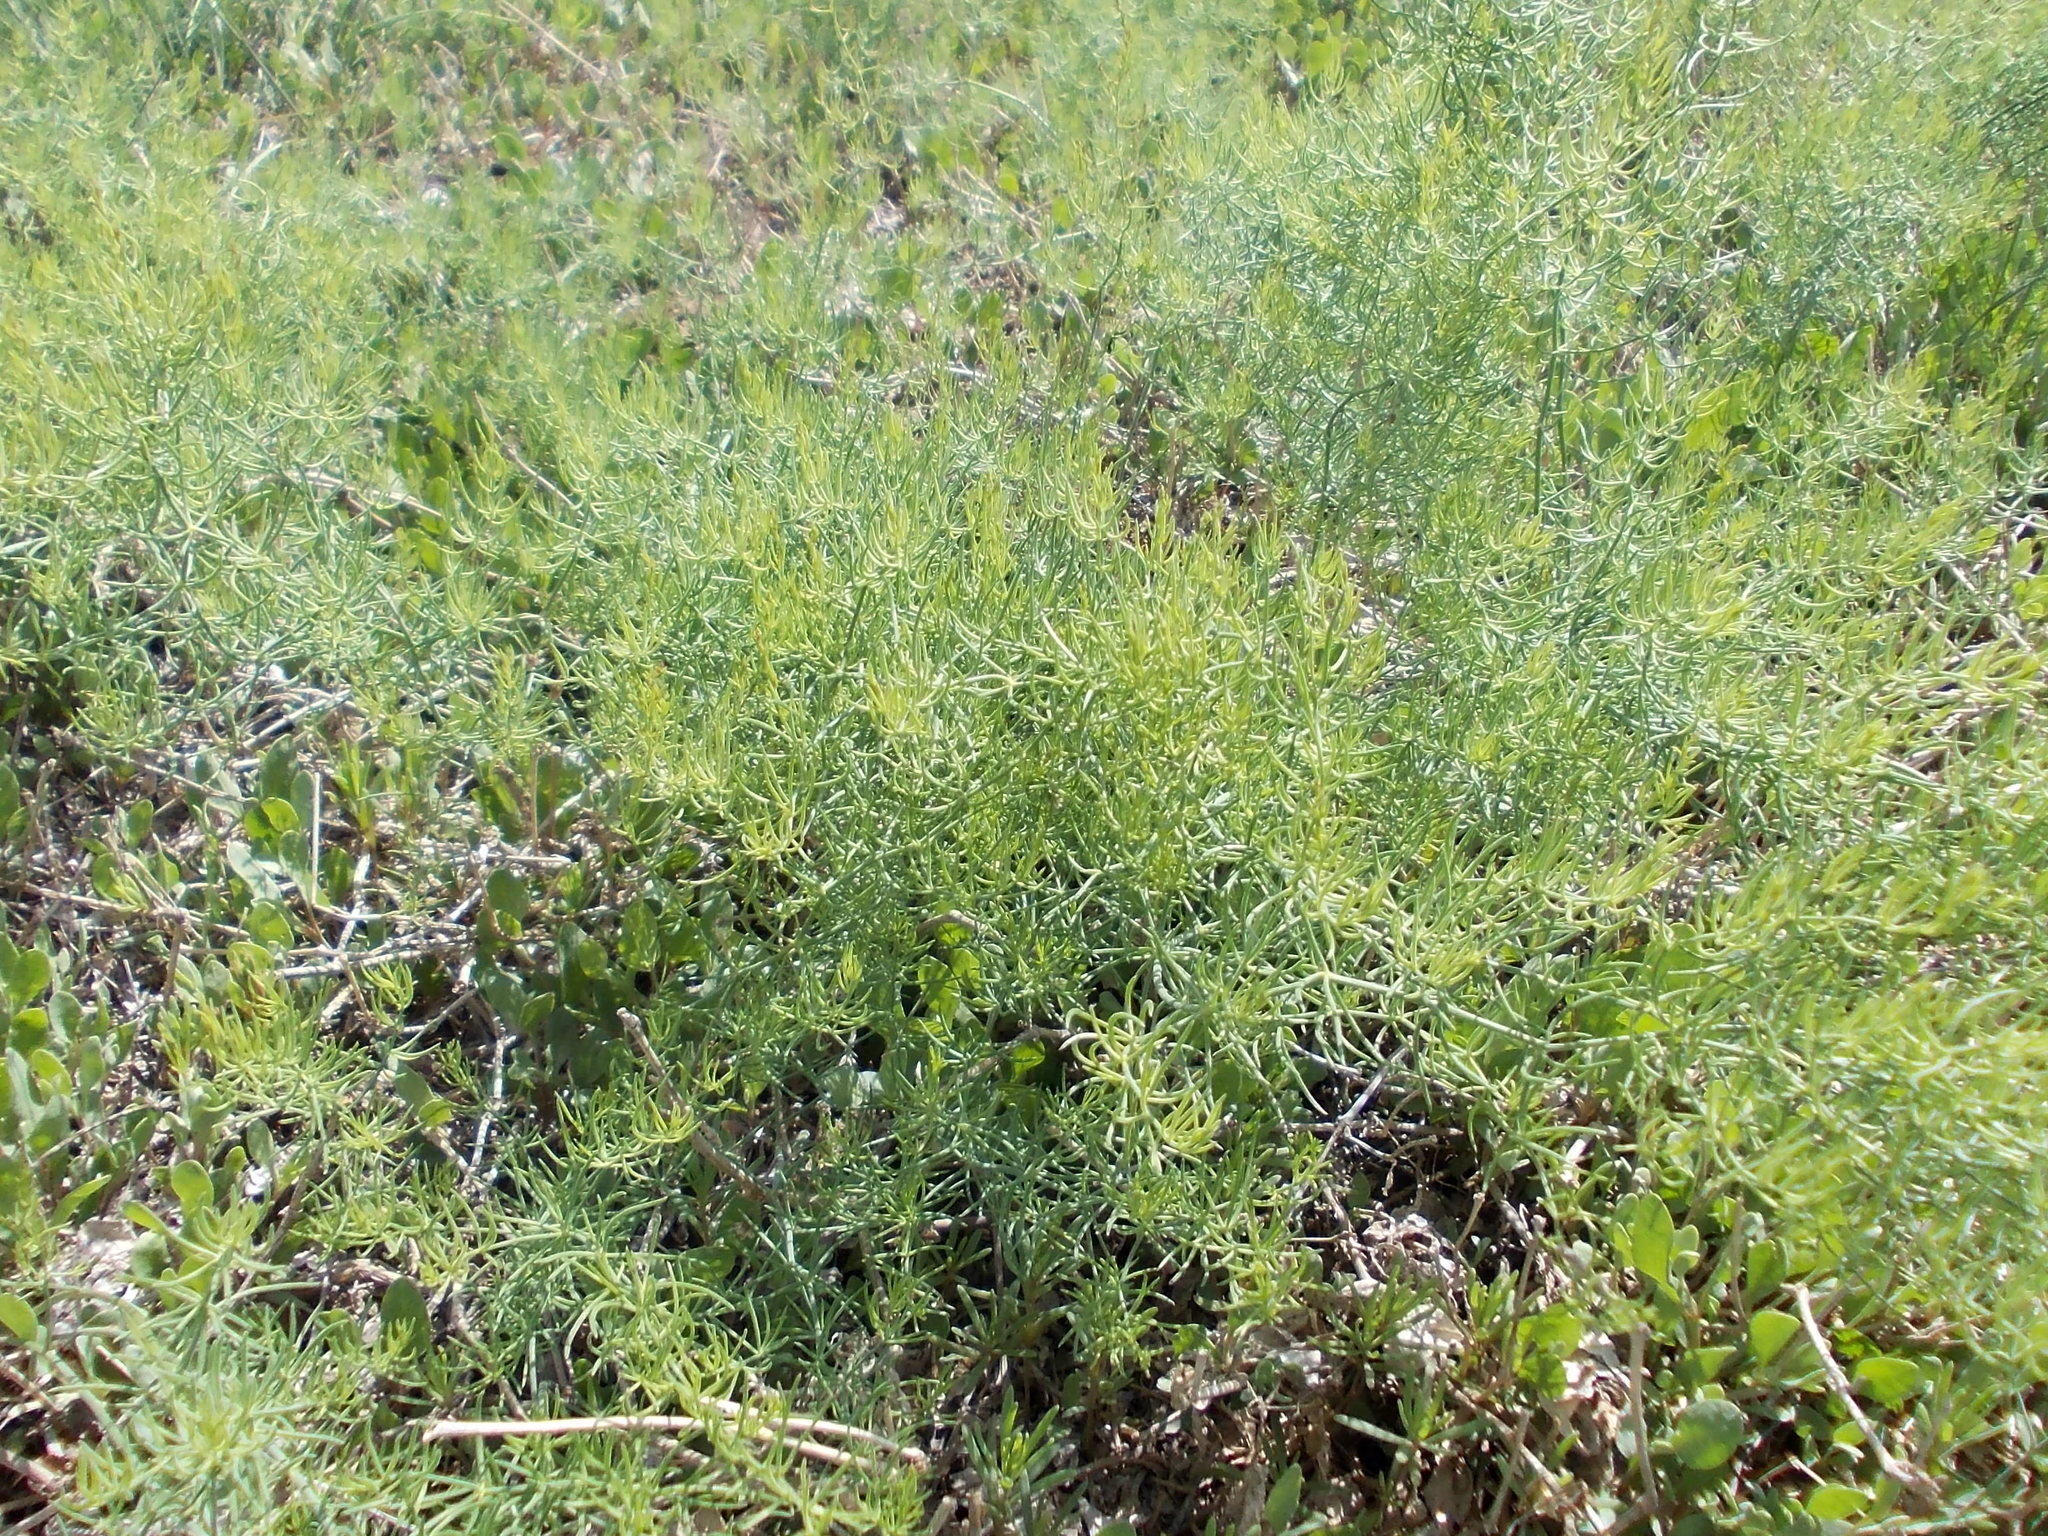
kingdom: Plantae
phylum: Tracheophyta
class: Liliopsida
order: Asparagales
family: Asparagaceae
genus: Asparagus
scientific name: Asparagus pallasii
